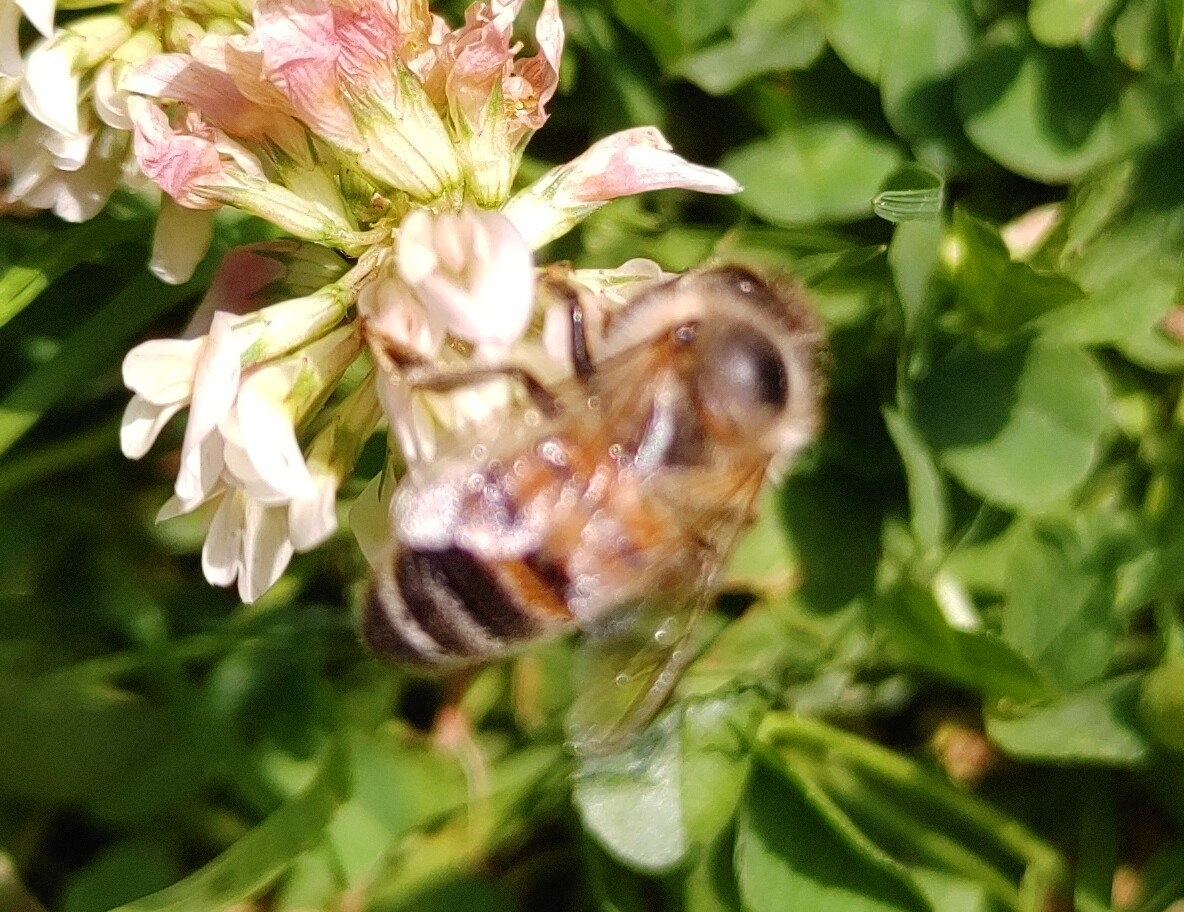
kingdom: Animalia
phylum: Arthropoda
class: Insecta
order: Hymenoptera
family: Apidae
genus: Apis
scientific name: Apis mellifera
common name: Honey bee
